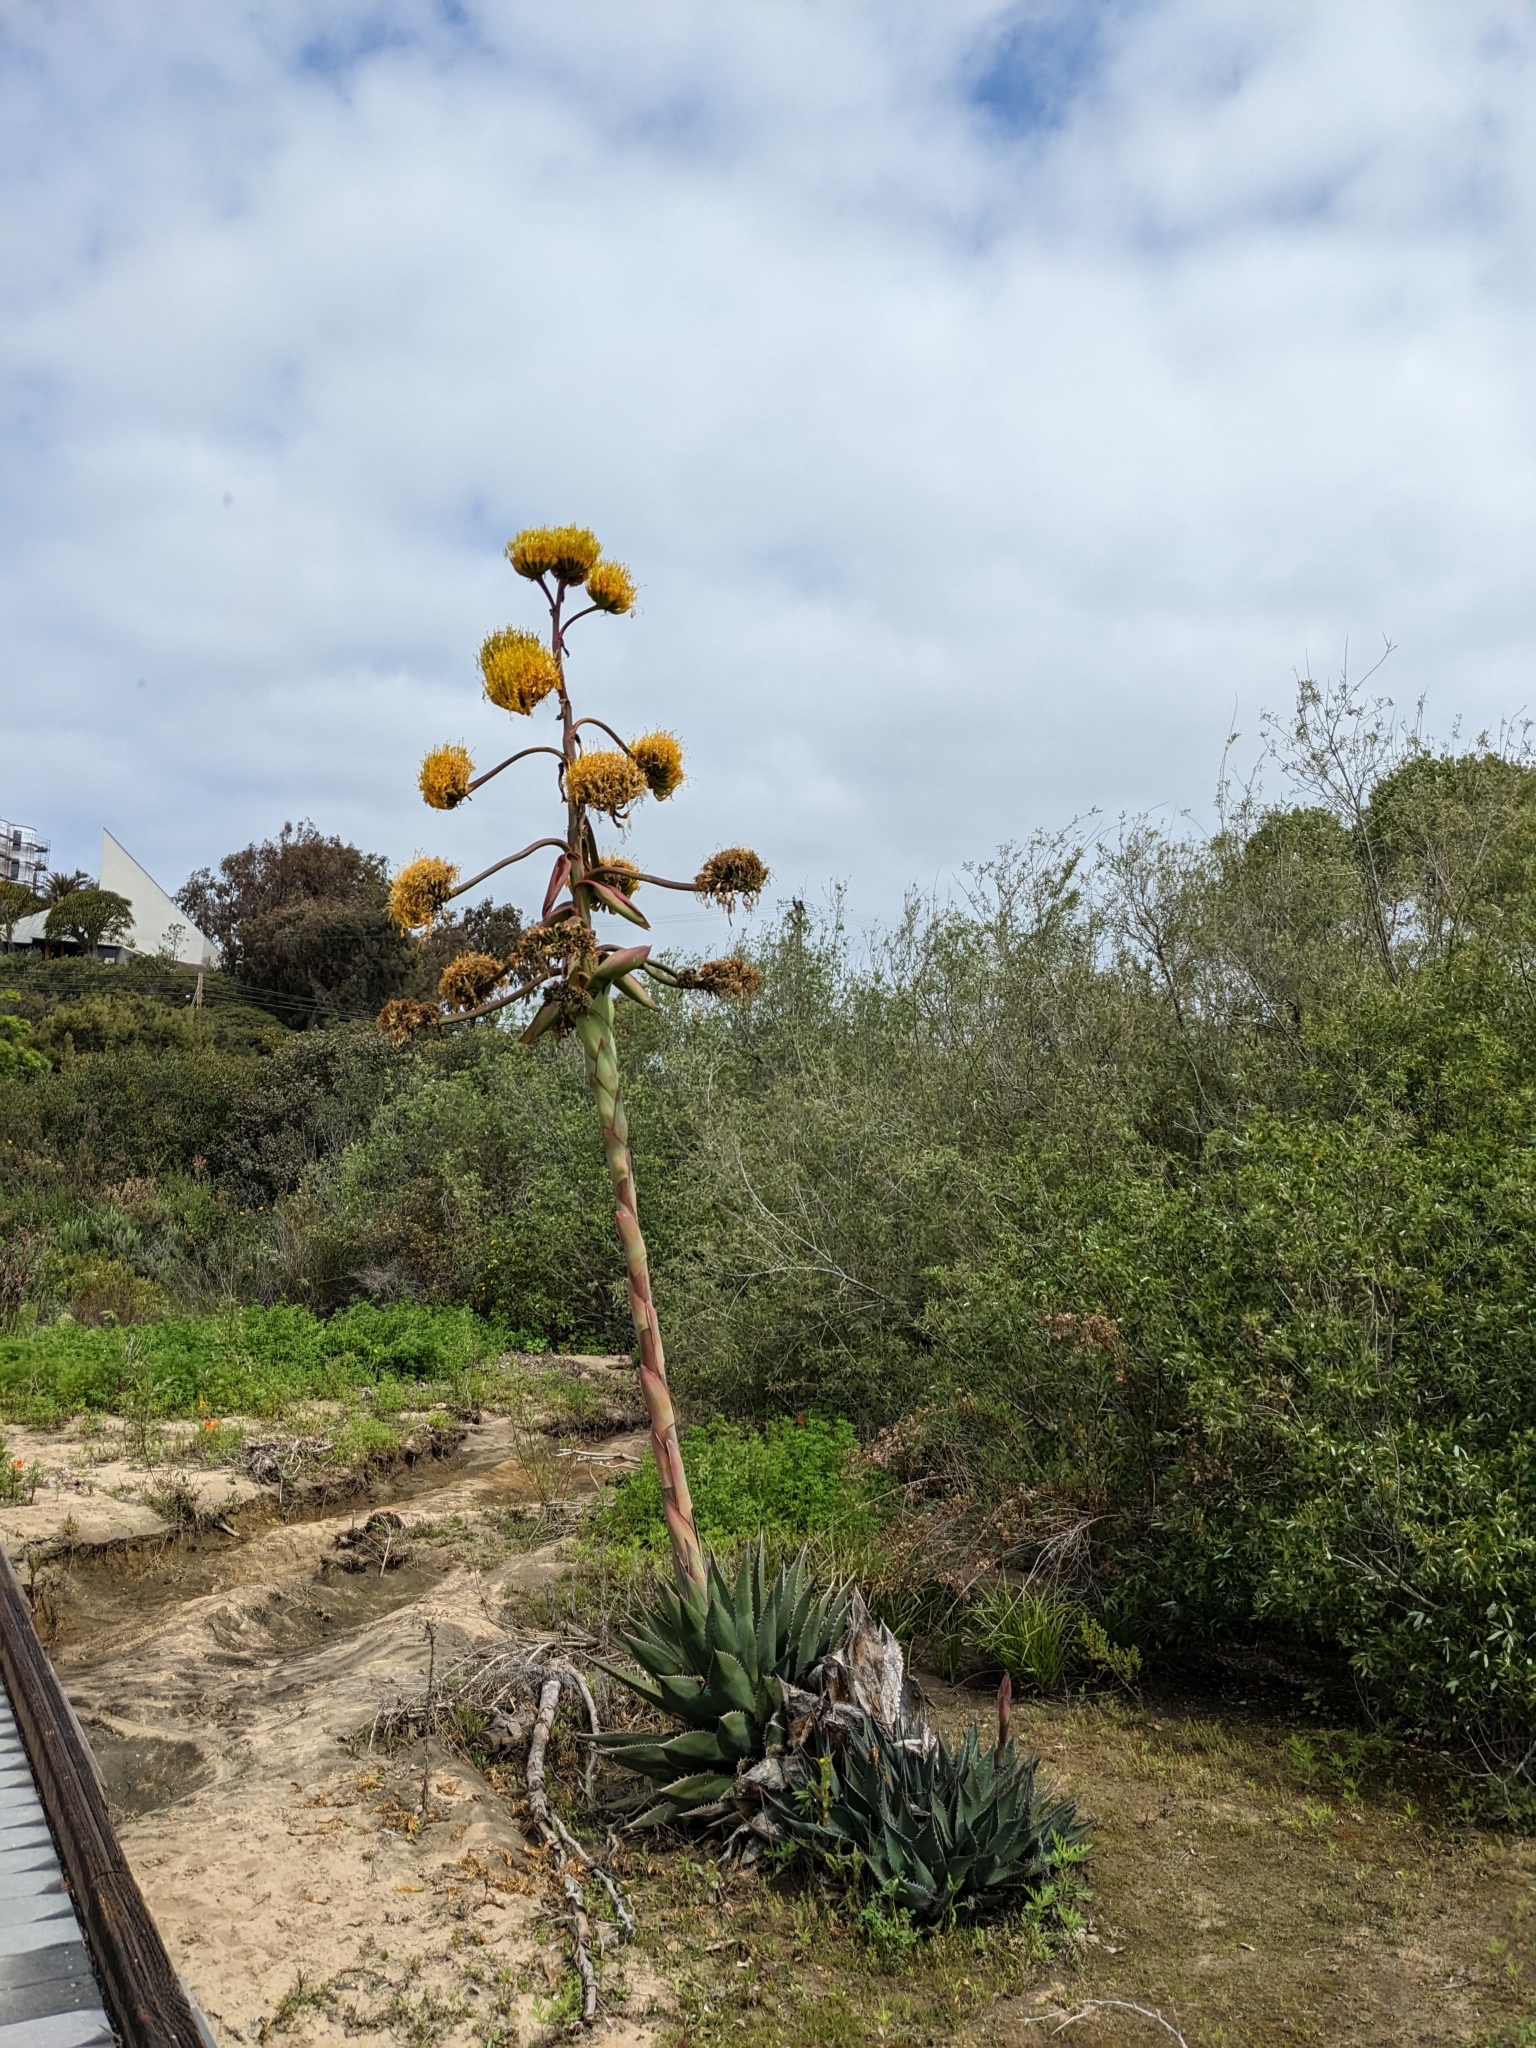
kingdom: Plantae
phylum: Tracheophyta
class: Liliopsida
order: Asparagales
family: Asparagaceae
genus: Agave
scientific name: Agave shawii
